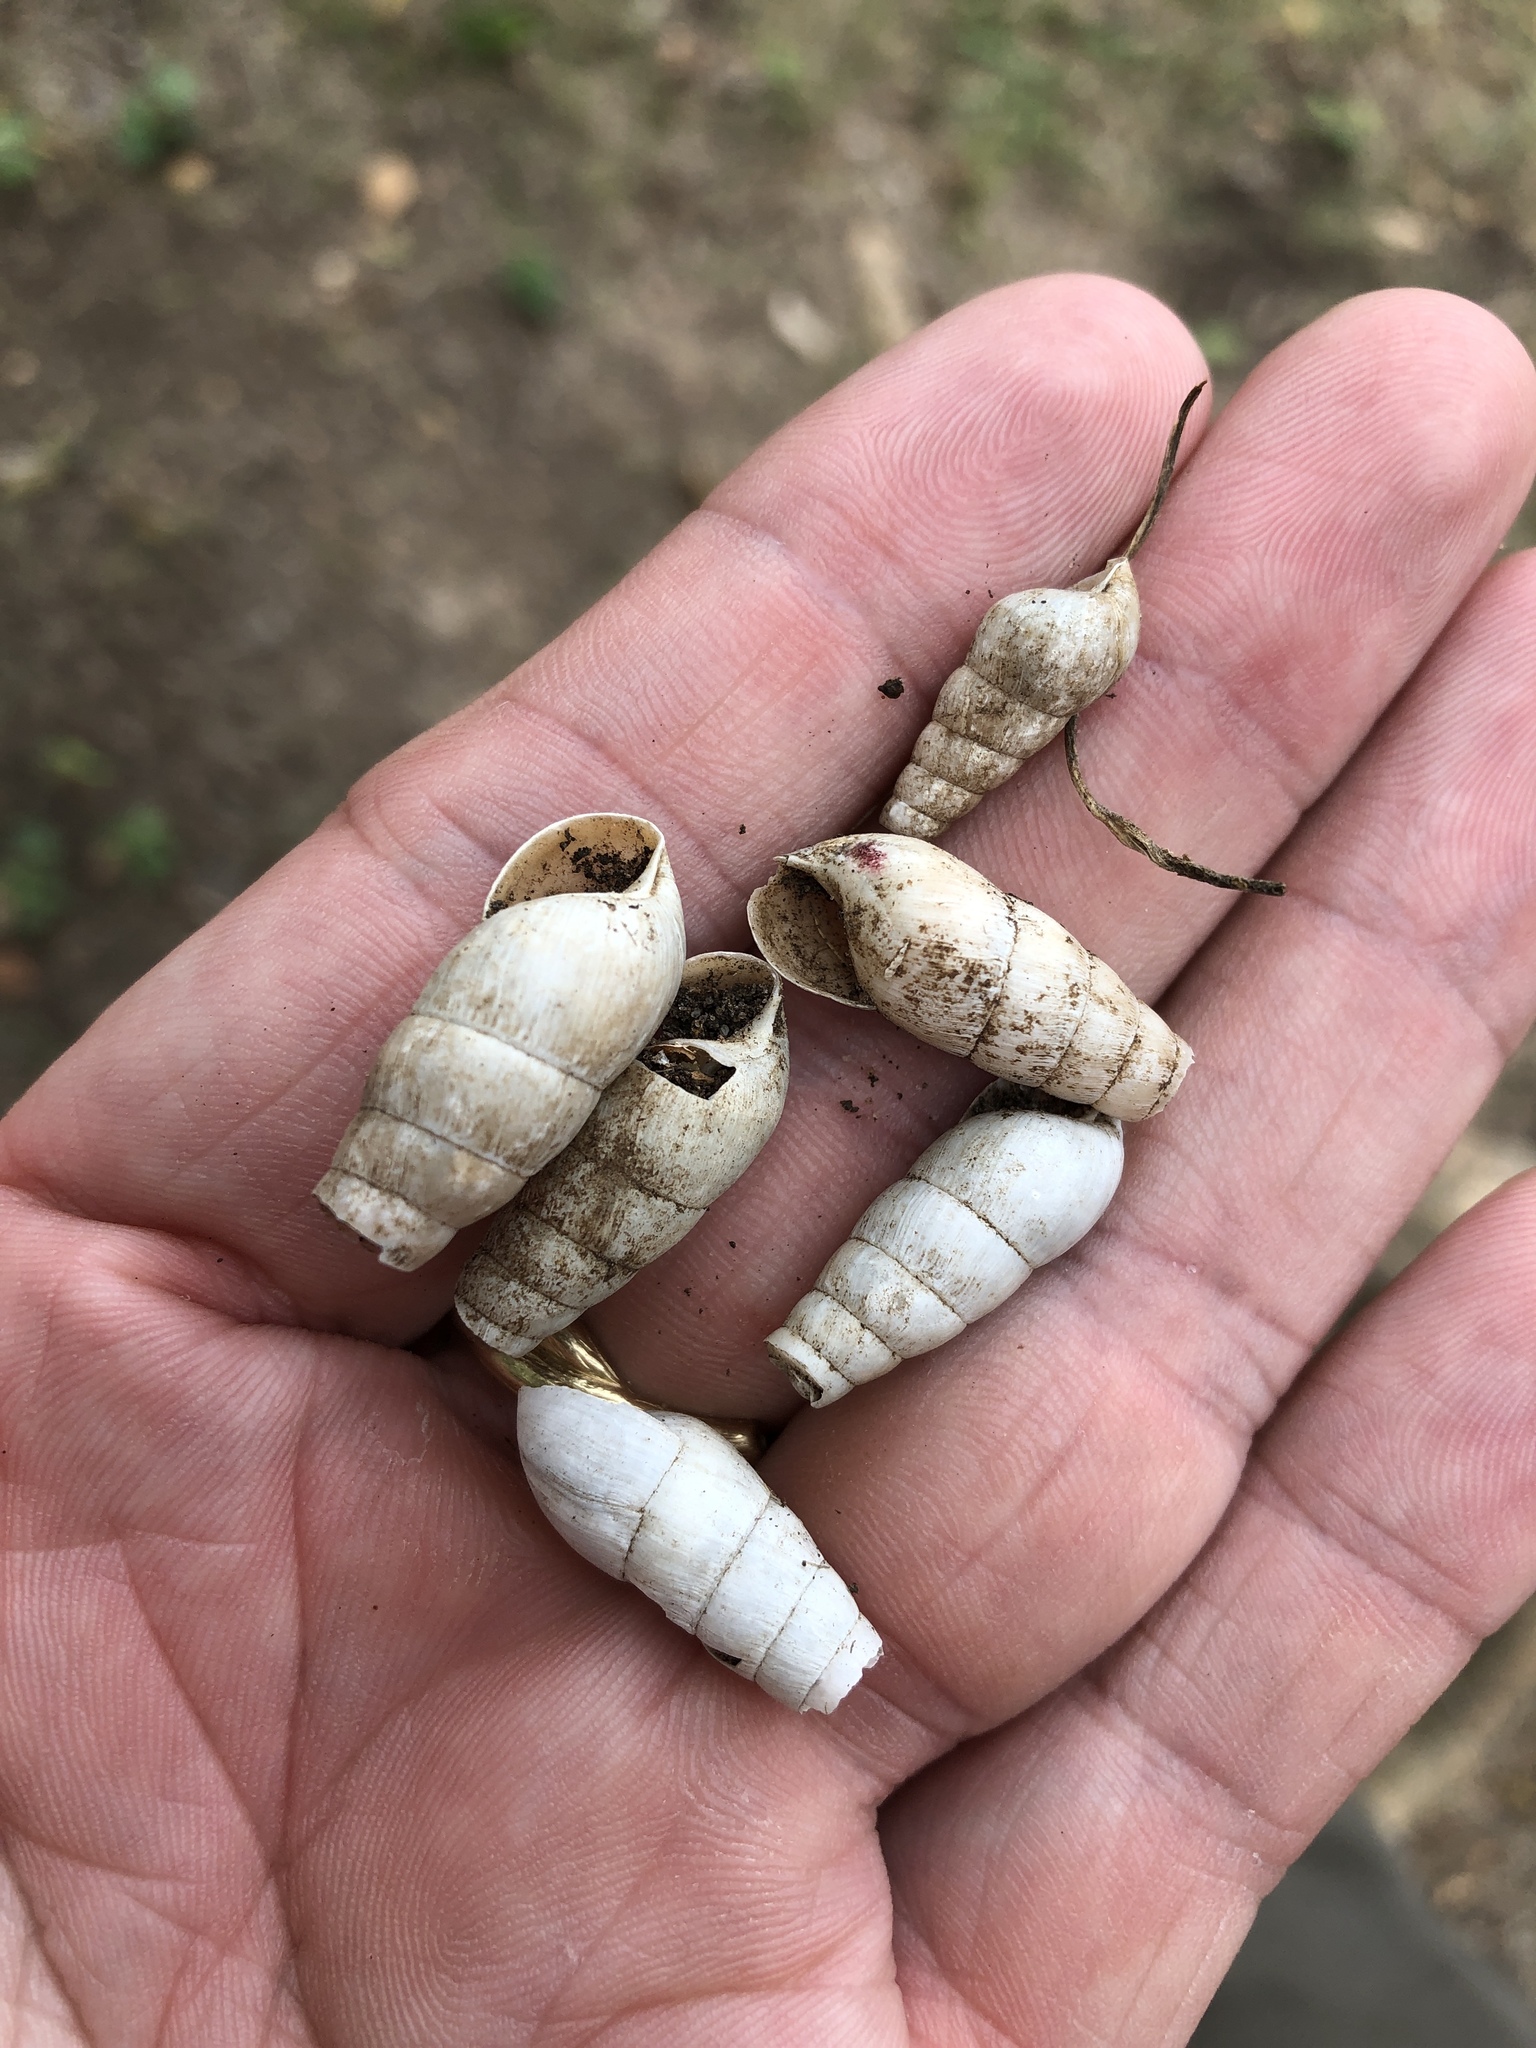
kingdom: Animalia
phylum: Mollusca
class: Gastropoda
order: Stylommatophora
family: Achatinidae
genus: Rumina
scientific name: Rumina decollata
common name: Decollate snail
